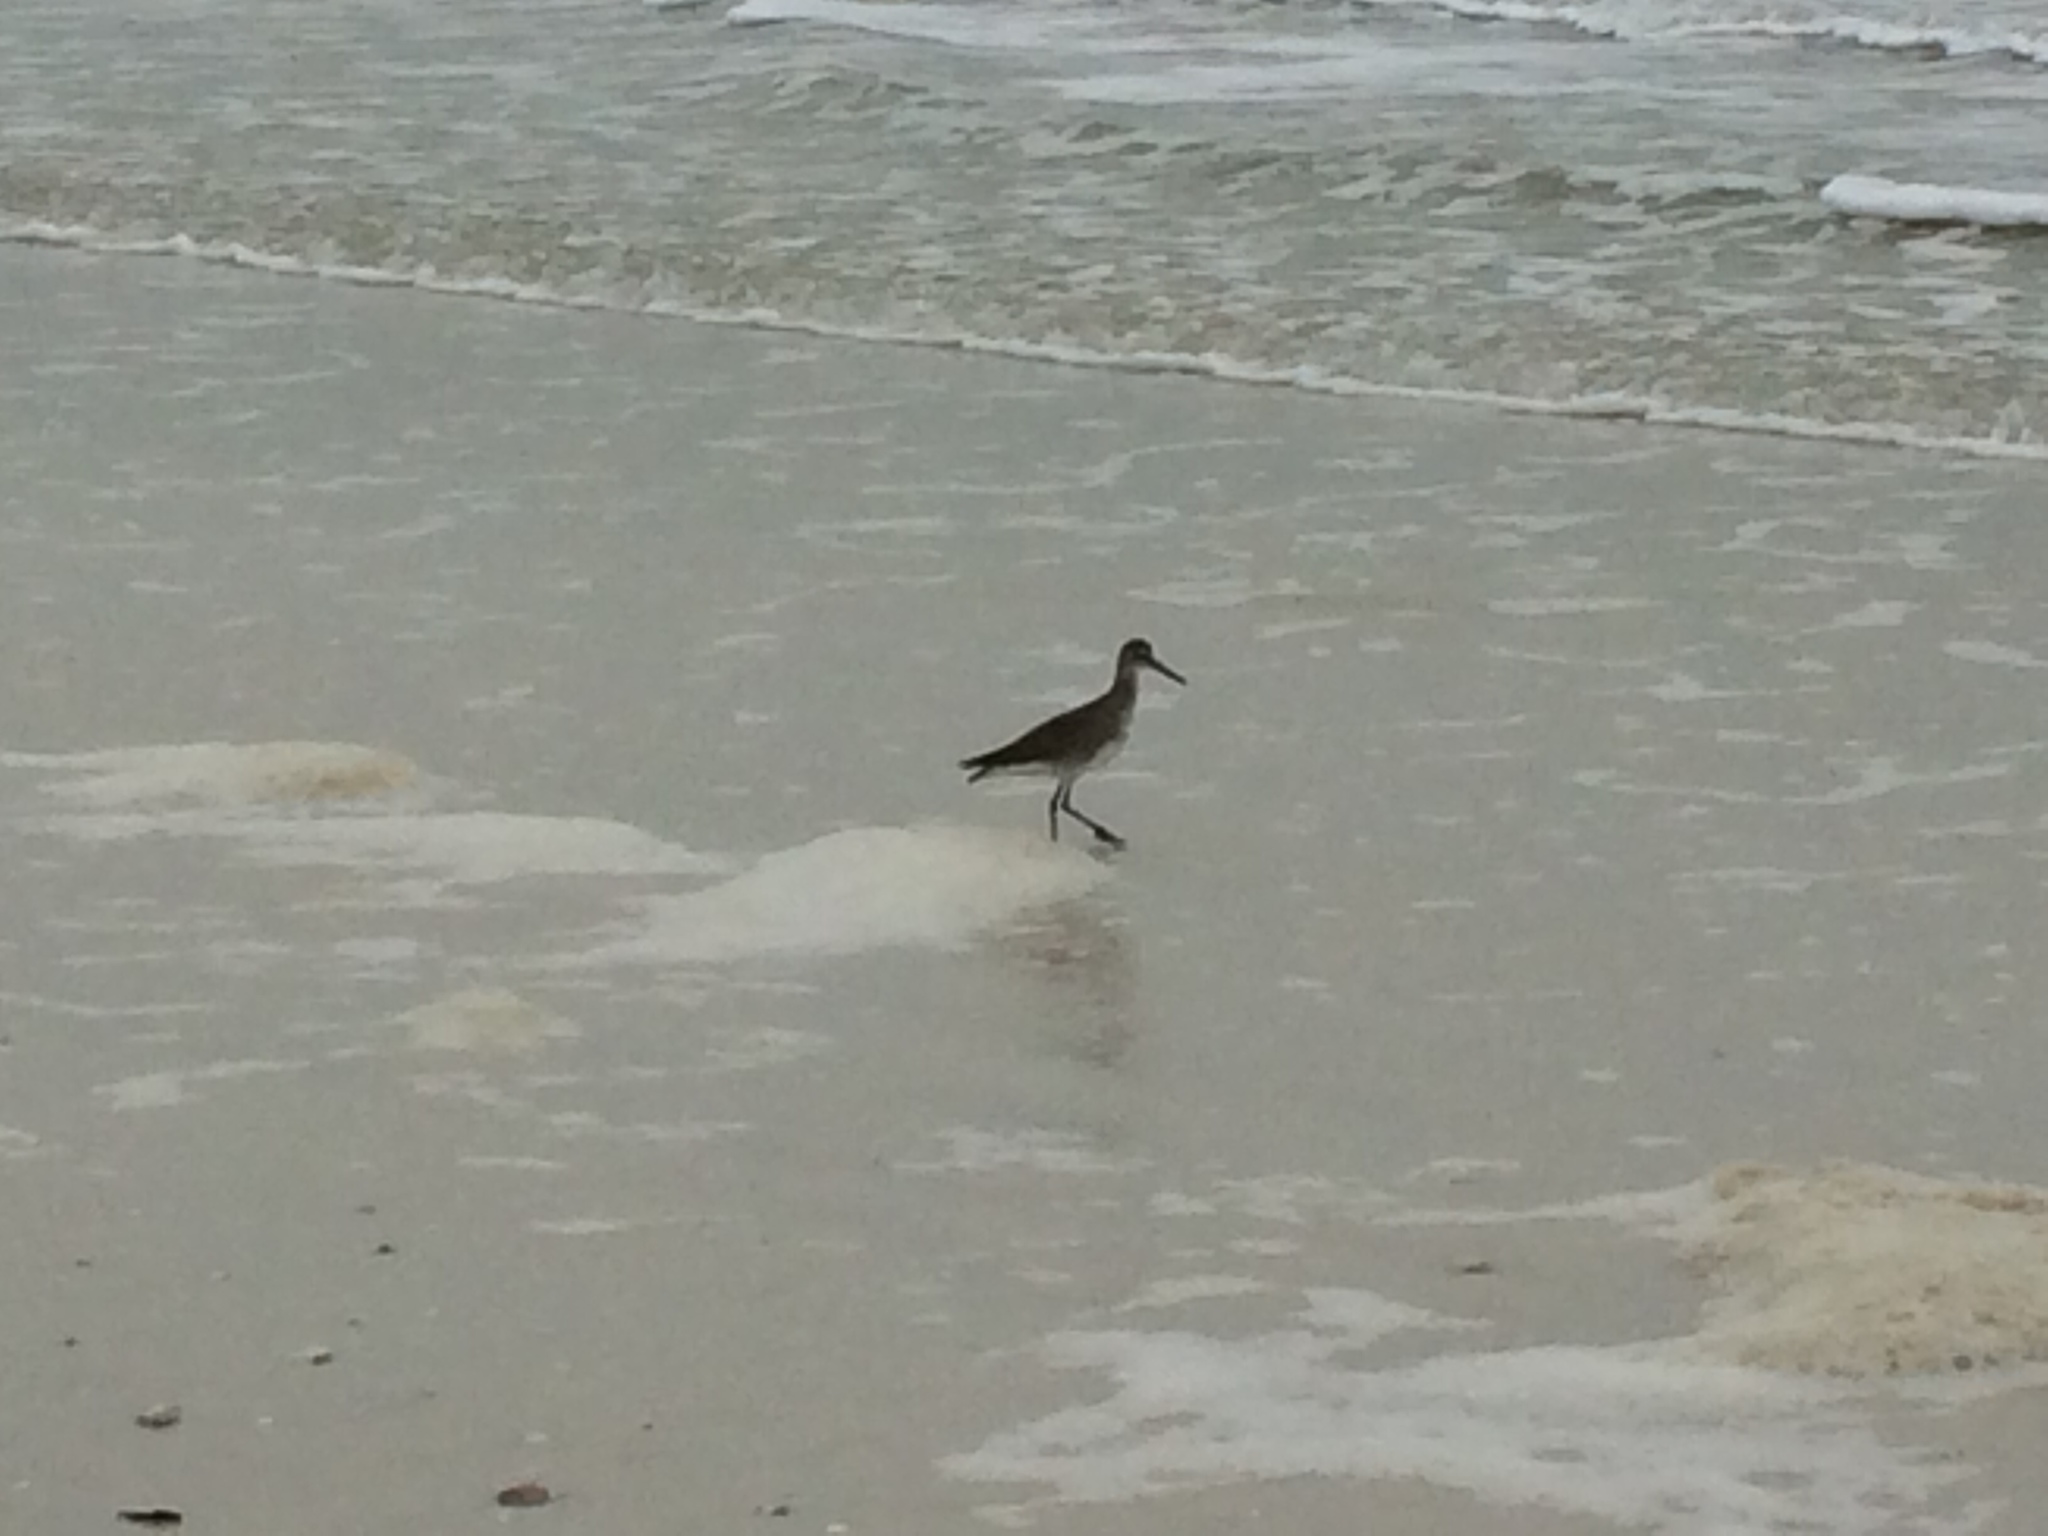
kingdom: Animalia
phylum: Chordata
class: Aves
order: Charadriiformes
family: Scolopacidae
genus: Tringa
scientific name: Tringa semipalmata
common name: Willet
